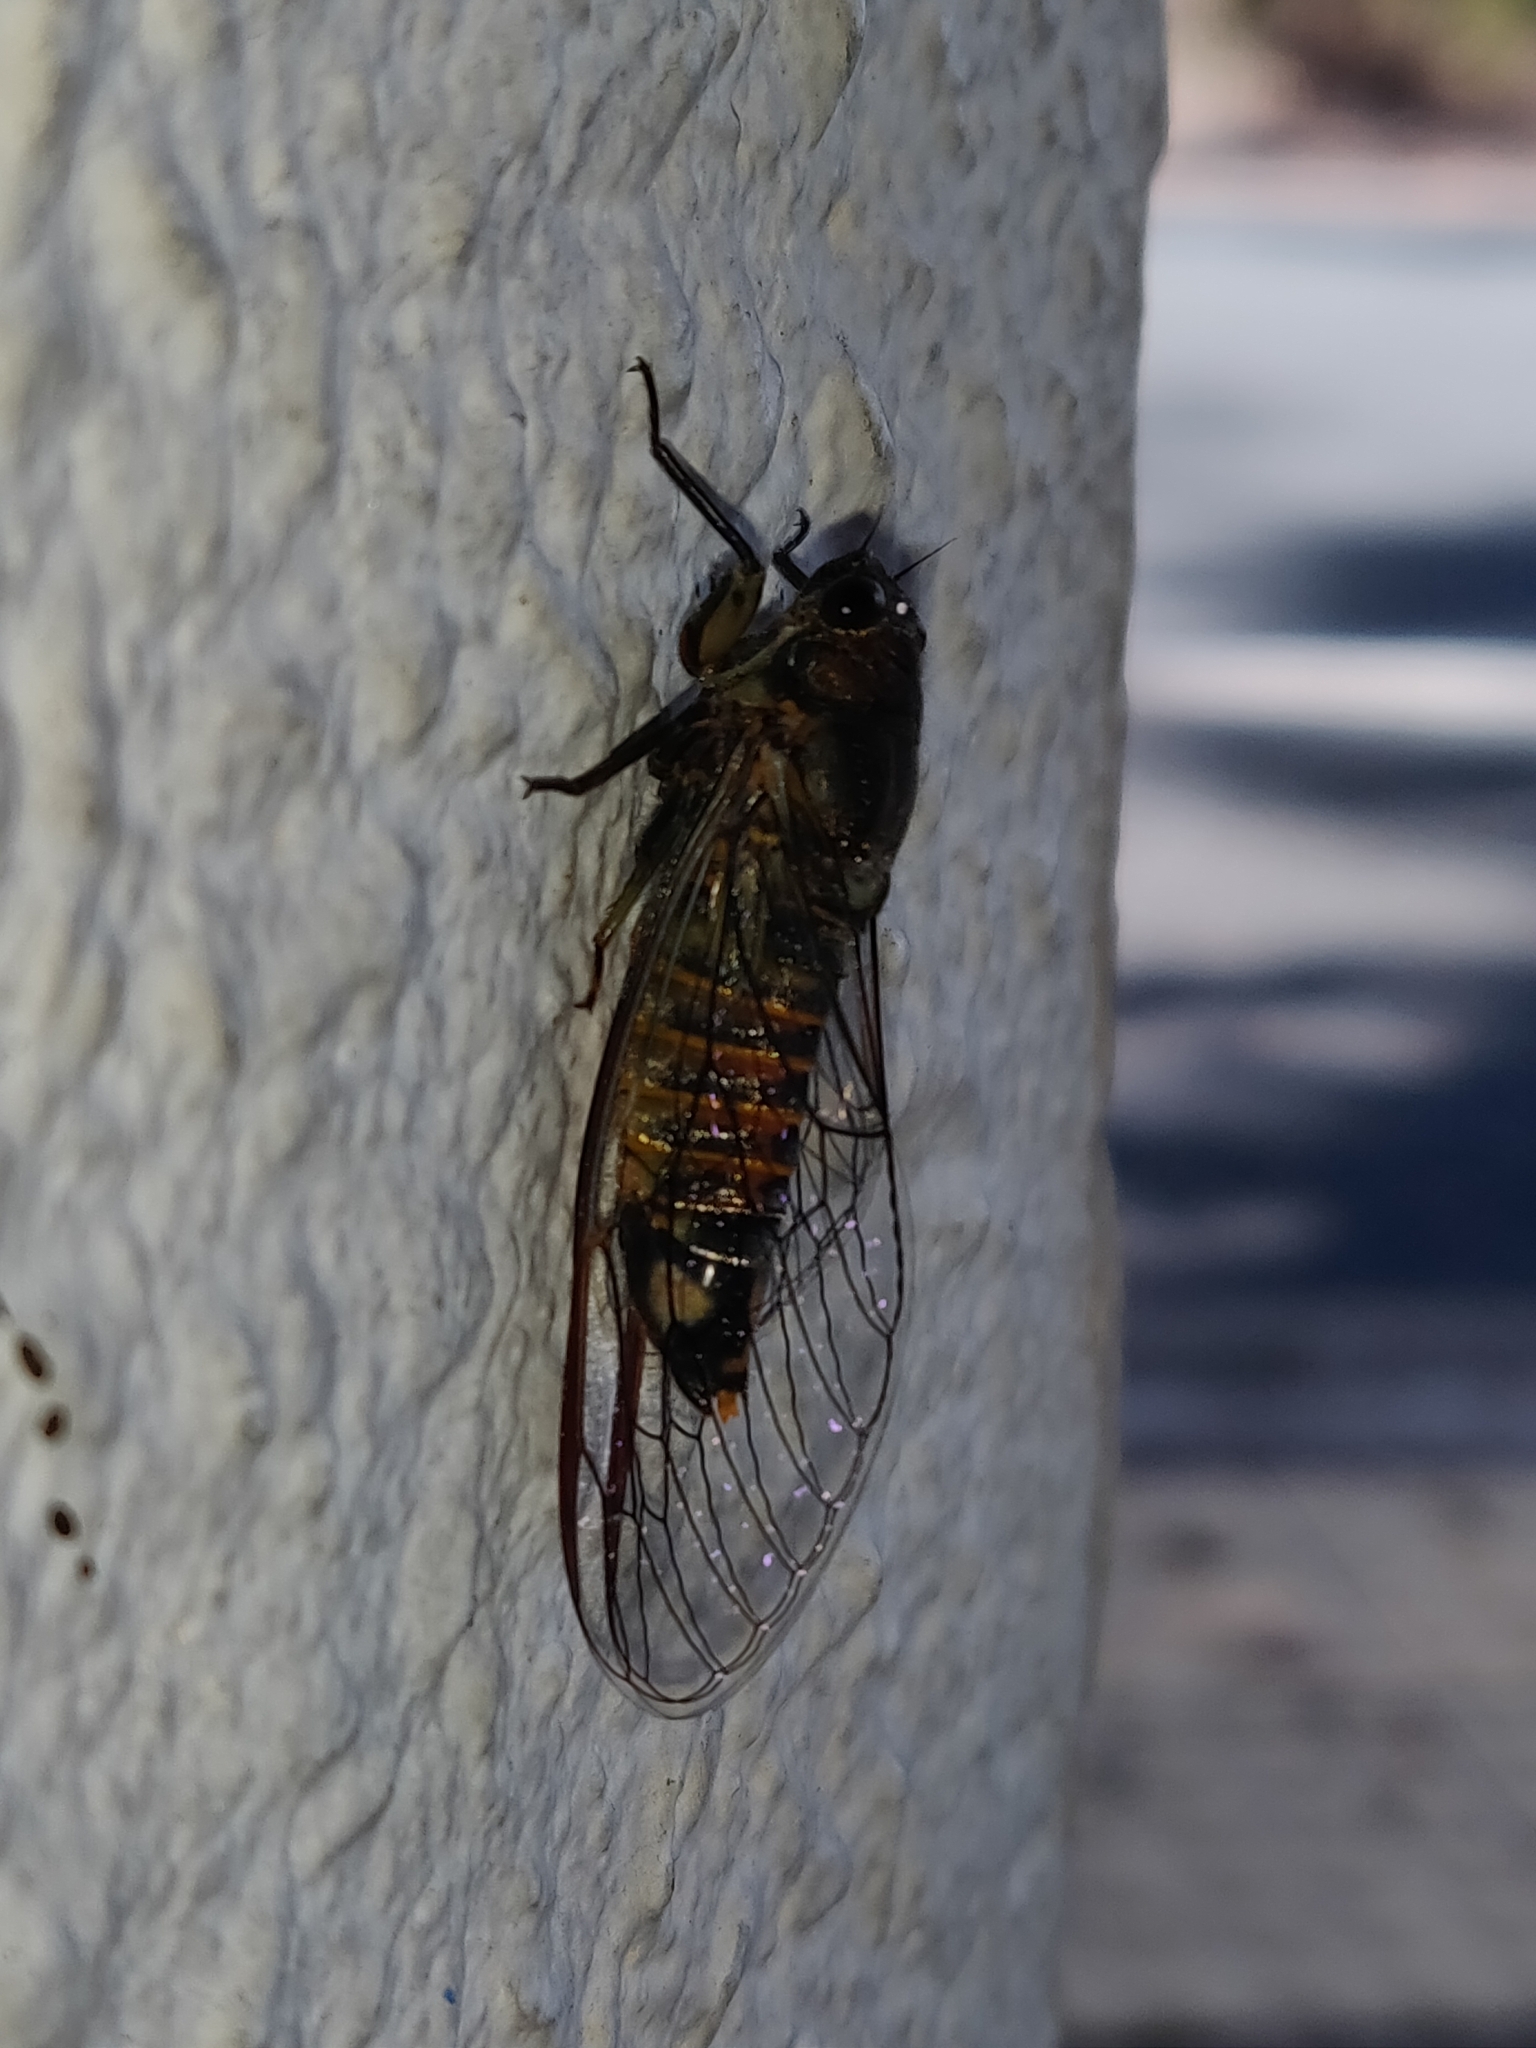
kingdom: Animalia
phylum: Arthropoda
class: Insecta
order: Hemiptera
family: Cicadidae
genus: Yoyetta
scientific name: Yoyetta robertsonae
